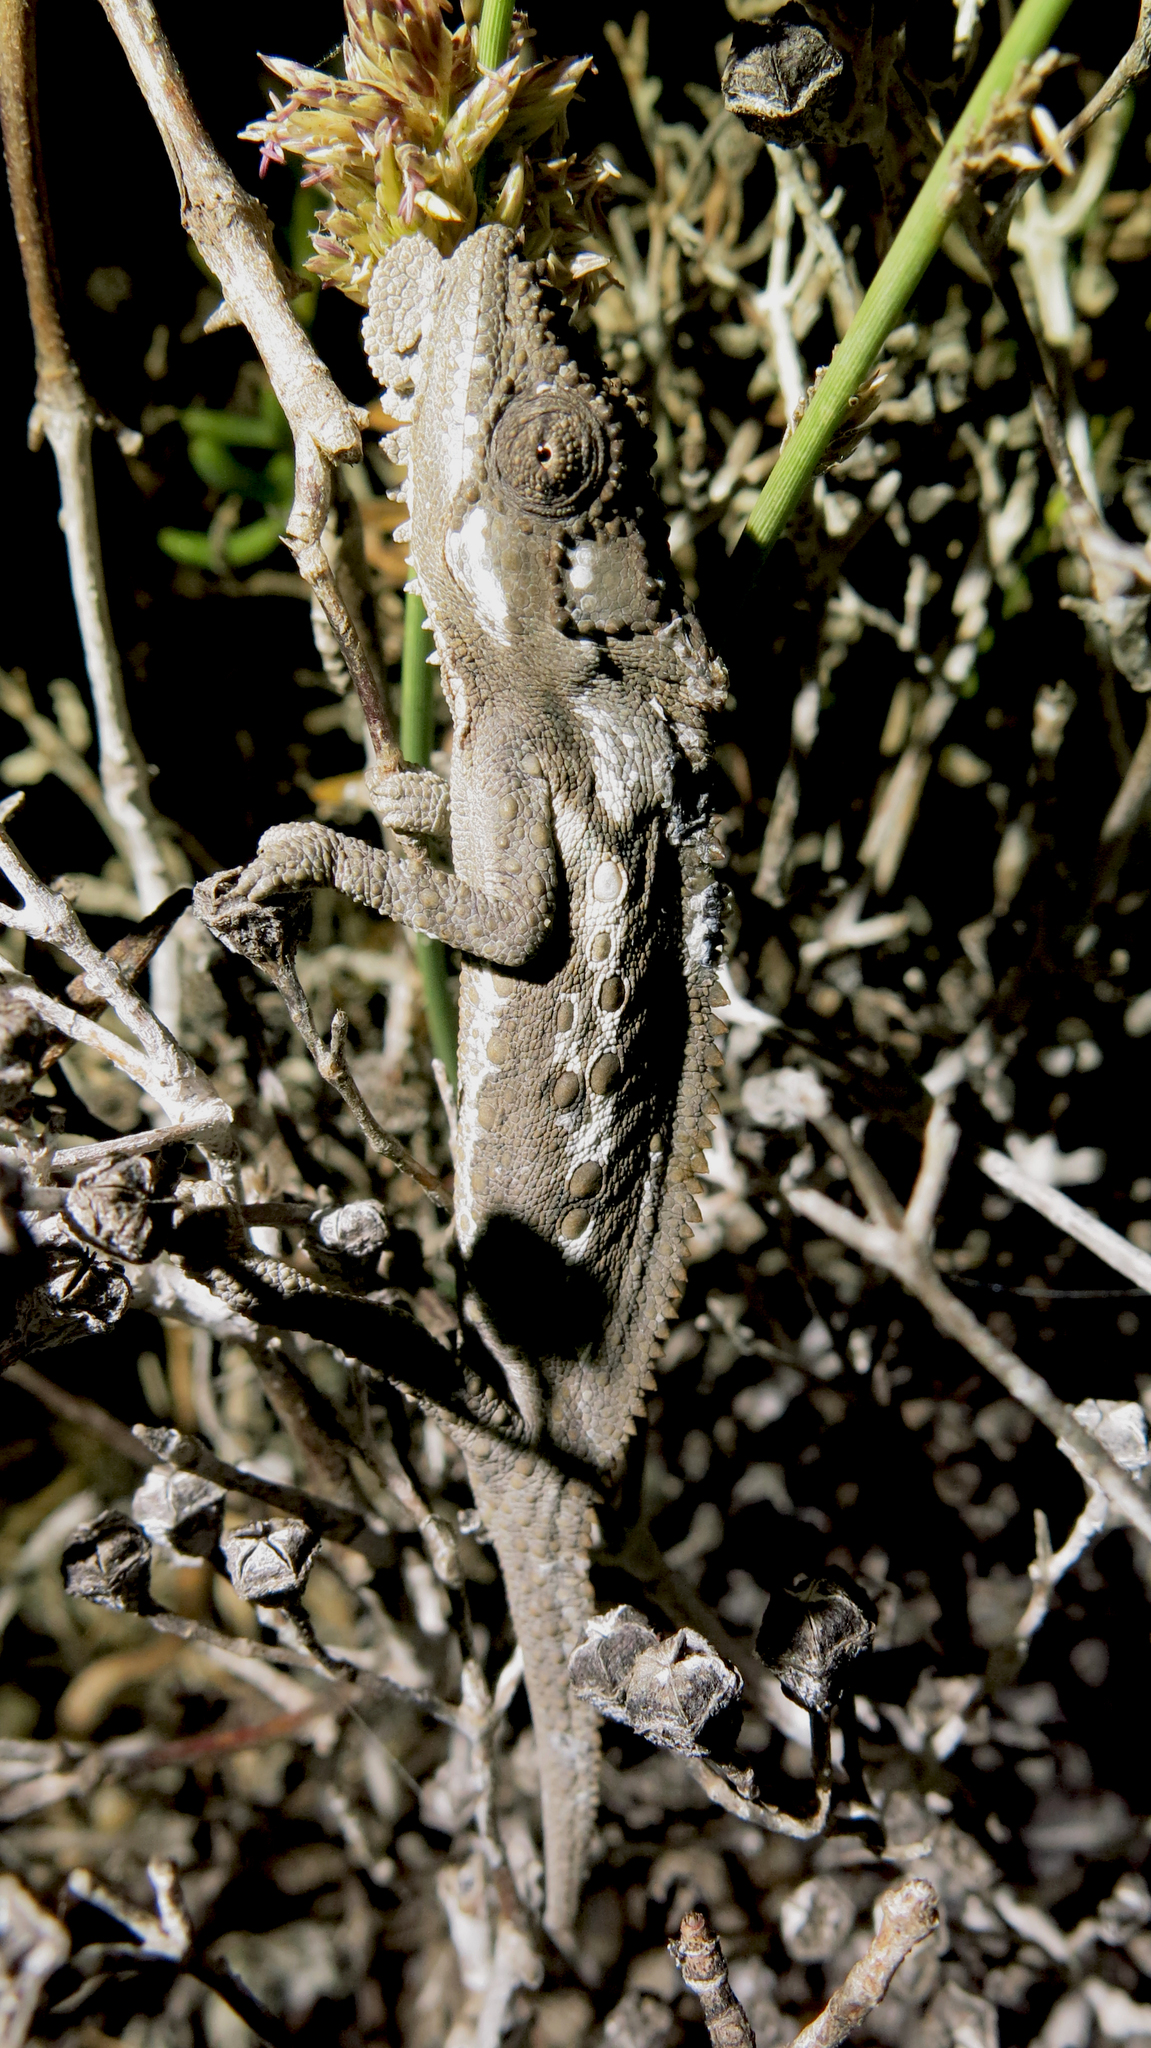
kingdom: Animalia
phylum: Chordata
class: Squamata
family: Chamaeleonidae
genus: Bradypodion
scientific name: Bradypodion occidentale
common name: Western dwarf chameleon
